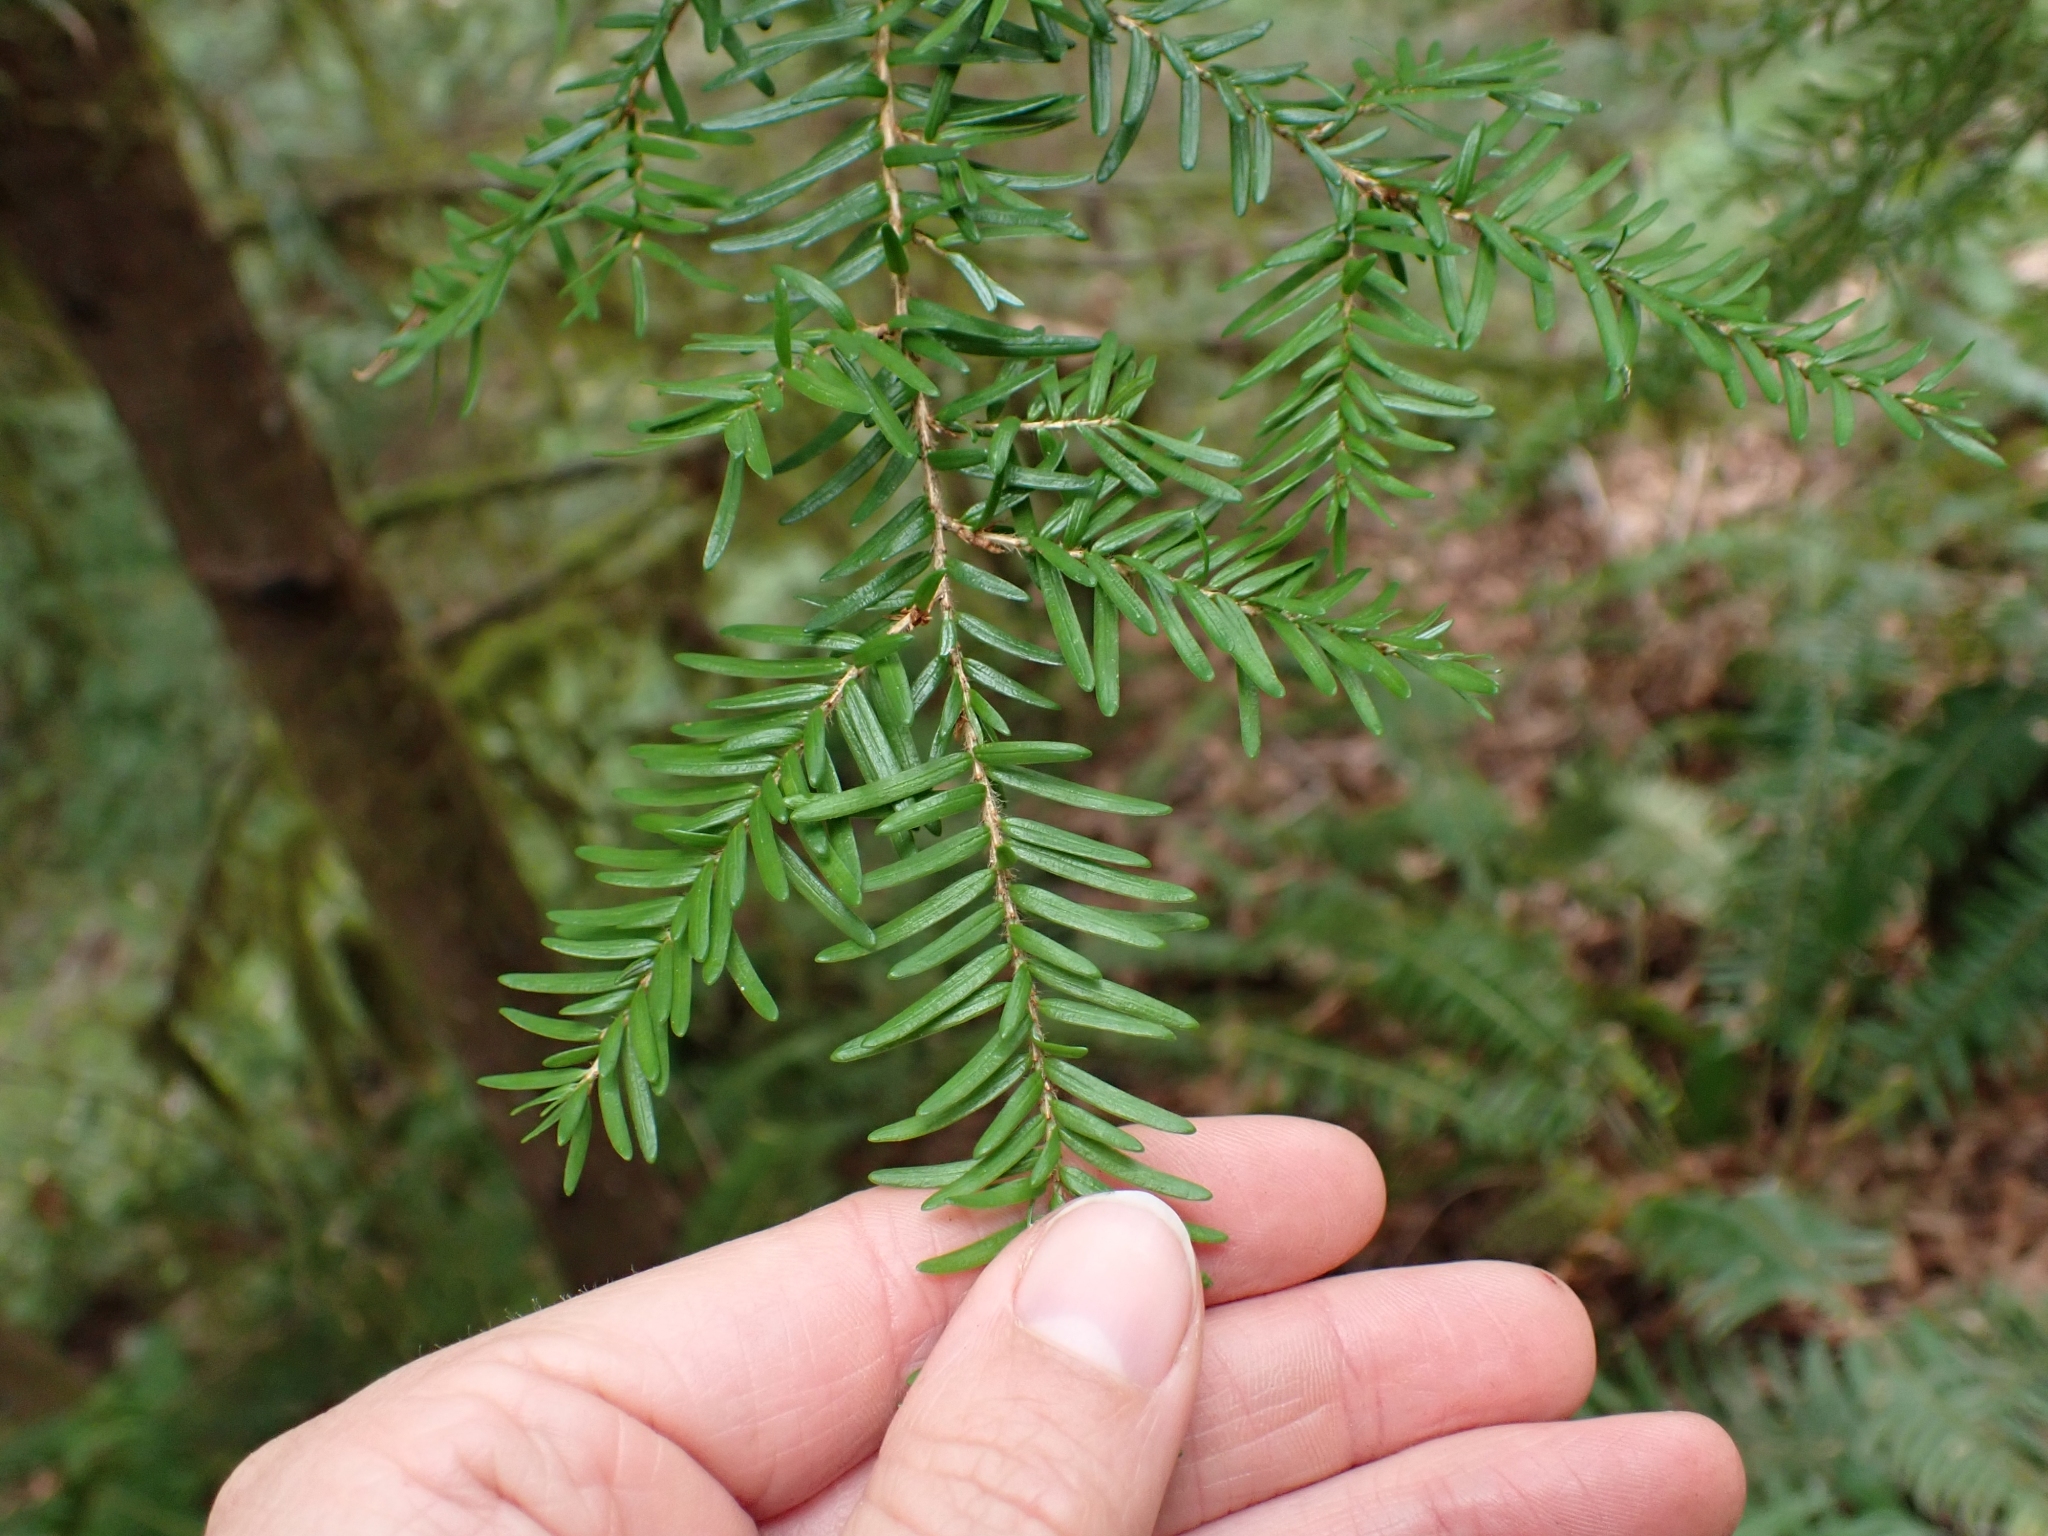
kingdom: Plantae
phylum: Tracheophyta
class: Pinopsida
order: Pinales
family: Pinaceae
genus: Tsuga
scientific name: Tsuga heterophylla
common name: Western hemlock
